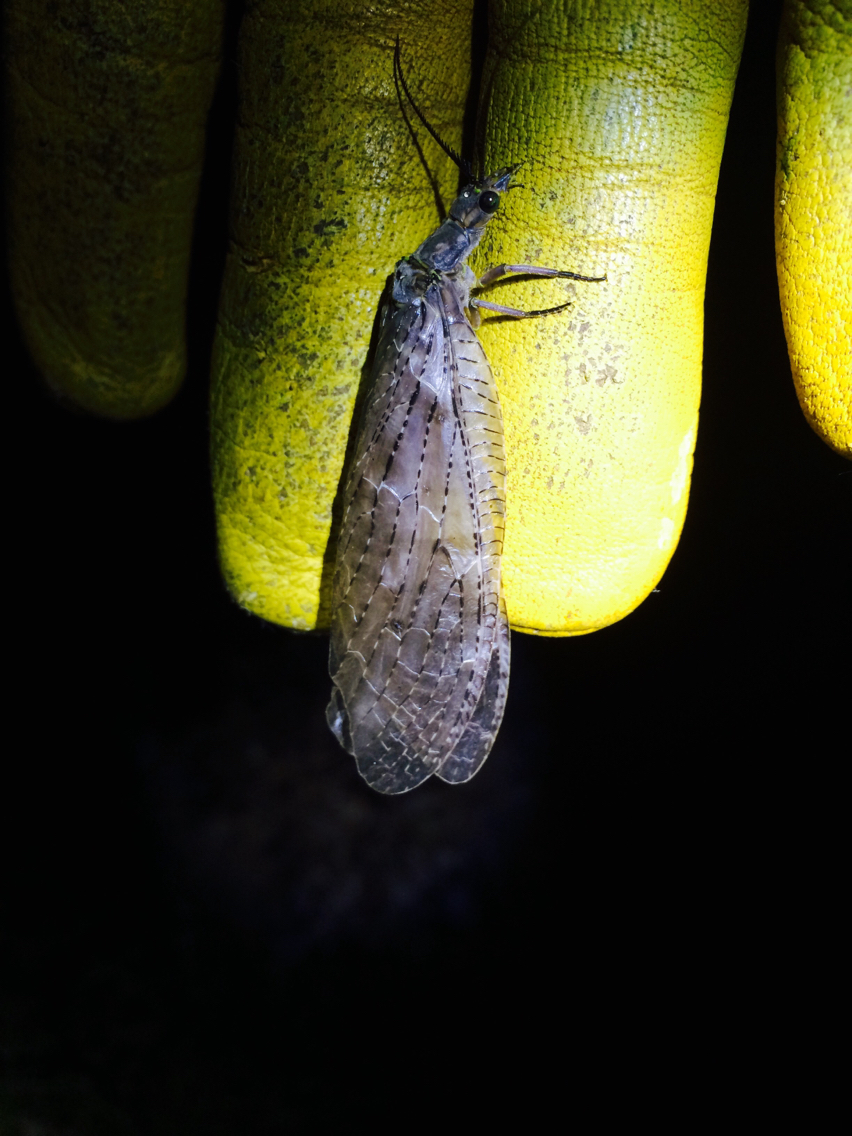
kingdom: Animalia
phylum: Arthropoda
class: Insecta
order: Megaloptera
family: Corydalidae
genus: Chauliodes
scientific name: Chauliodes pectinicornis
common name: Summer fishfly
